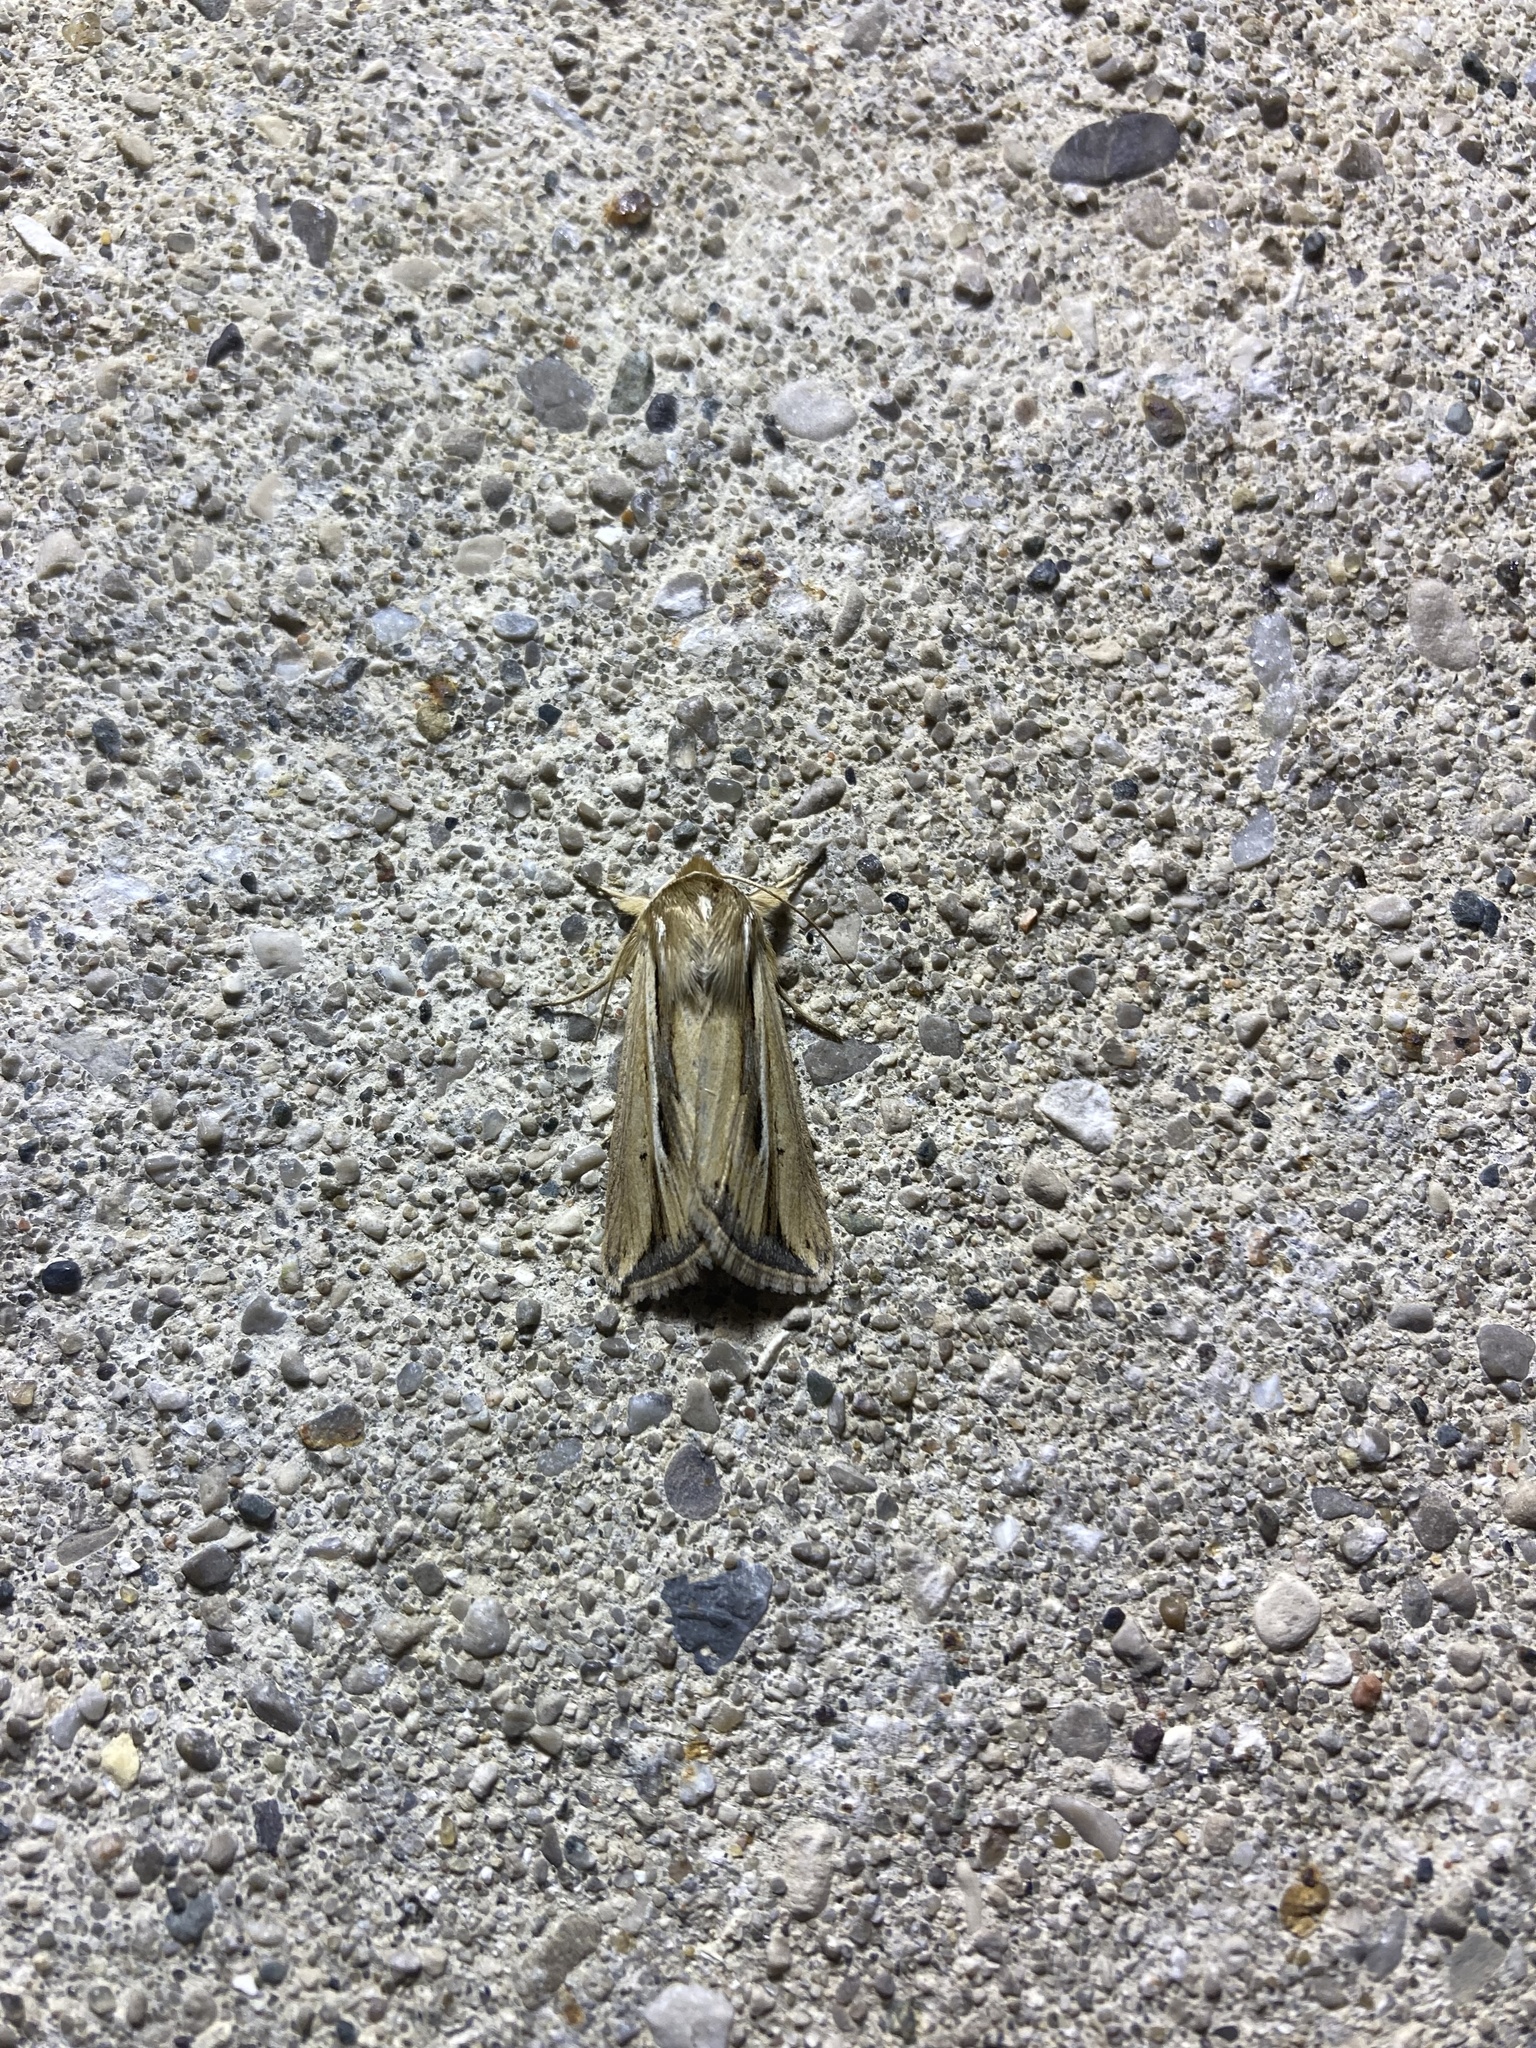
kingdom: Animalia
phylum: Arthropoda
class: Insecta
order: Lepidoptera
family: Noctuidae
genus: Dargida
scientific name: Dargida diffusa
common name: Wheat head armyworm
